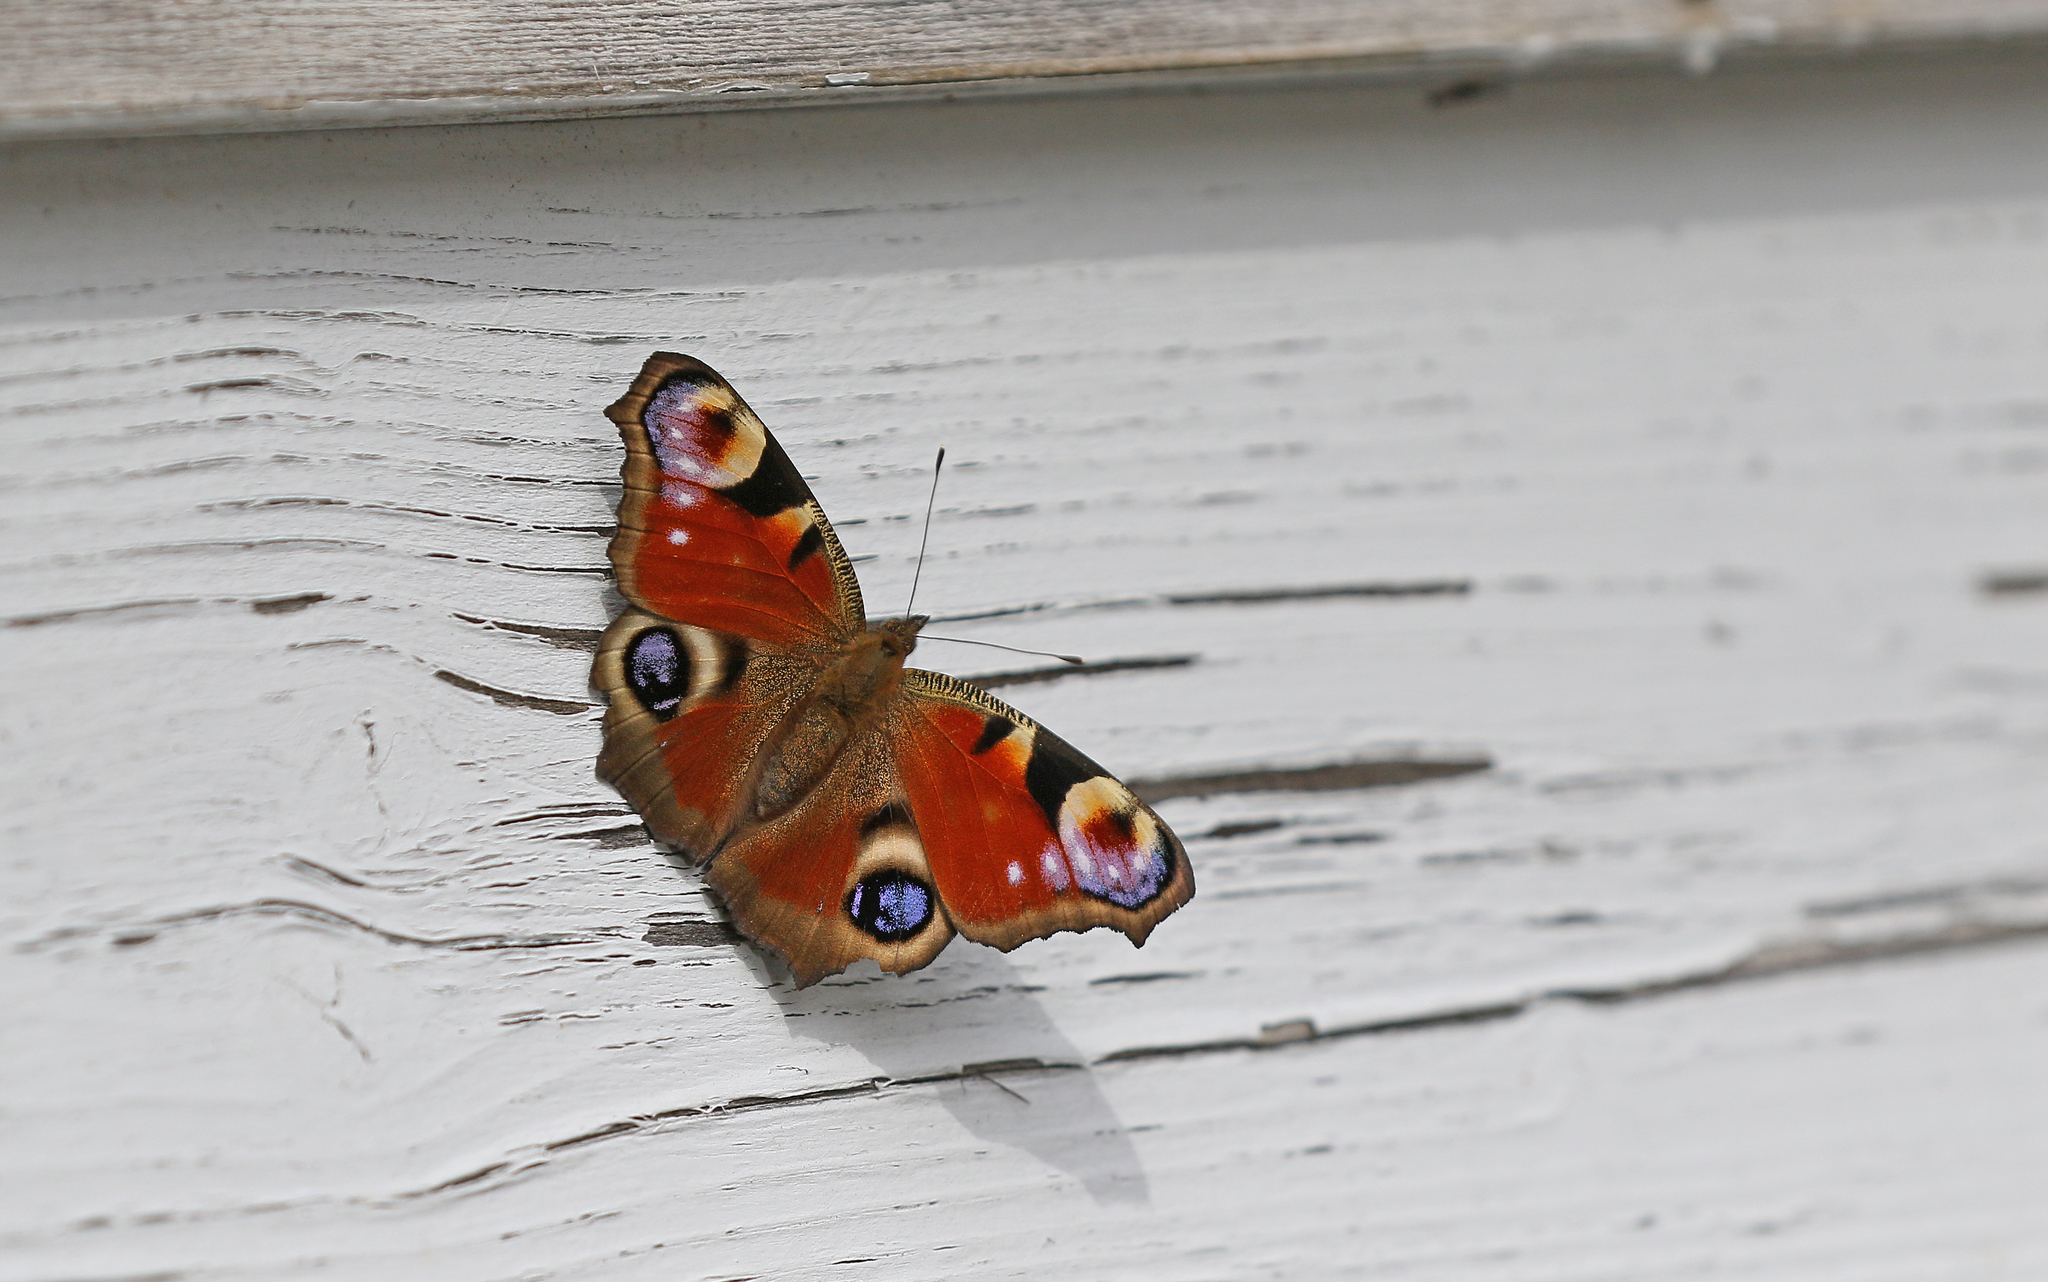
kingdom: Animalia
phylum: Arthropoda
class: Insecta
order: Lepidoptera
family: Nymphalidae
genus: Aglais
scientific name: Aglais io
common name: Peacock
